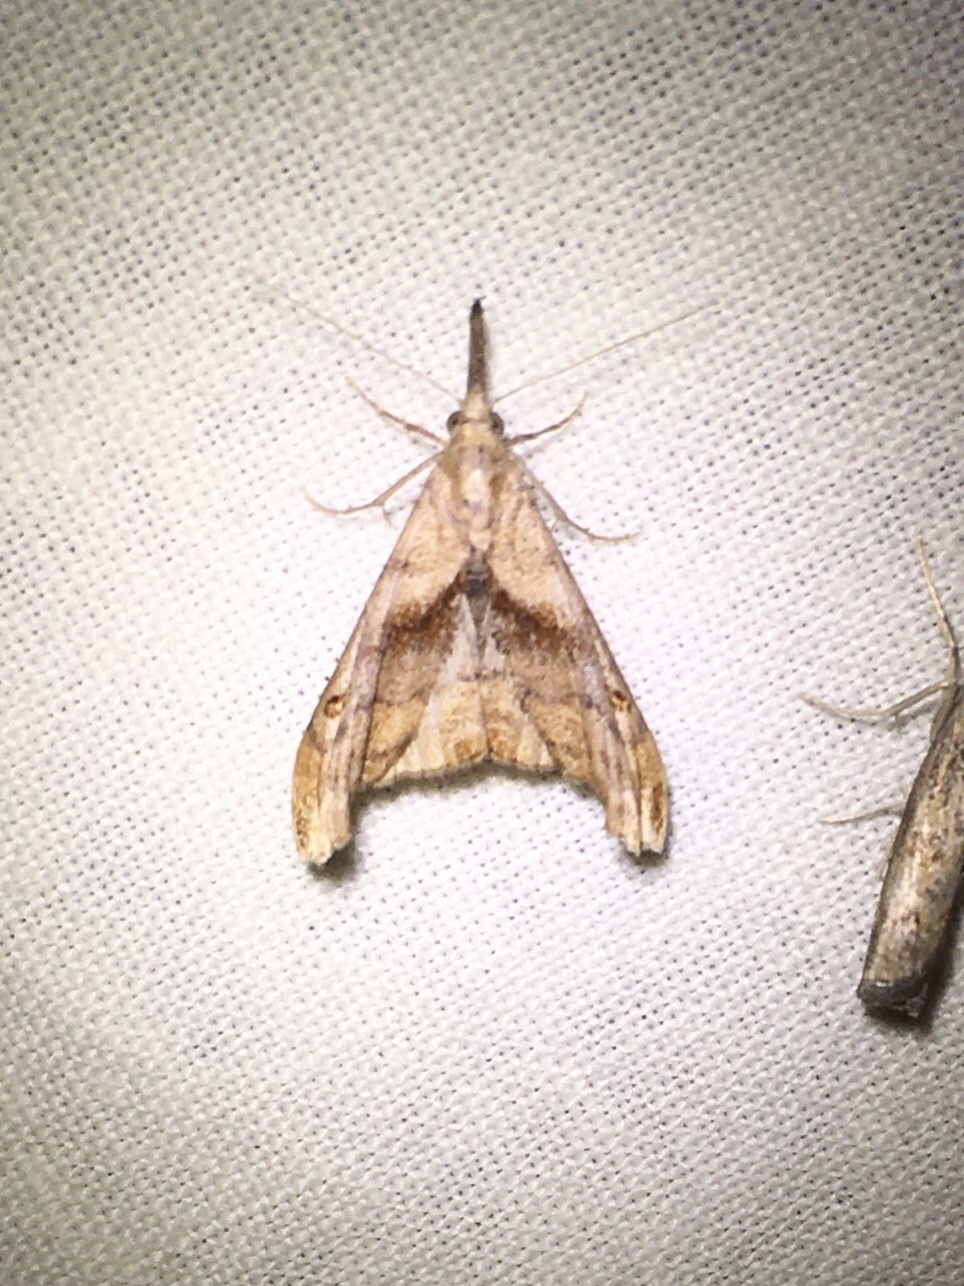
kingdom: Animalia
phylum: Arthropoda
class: Insecta
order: Lepidoptera
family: Erebidae
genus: Palthis
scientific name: Palthis angulalis
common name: Dark-spotted palthis moth
